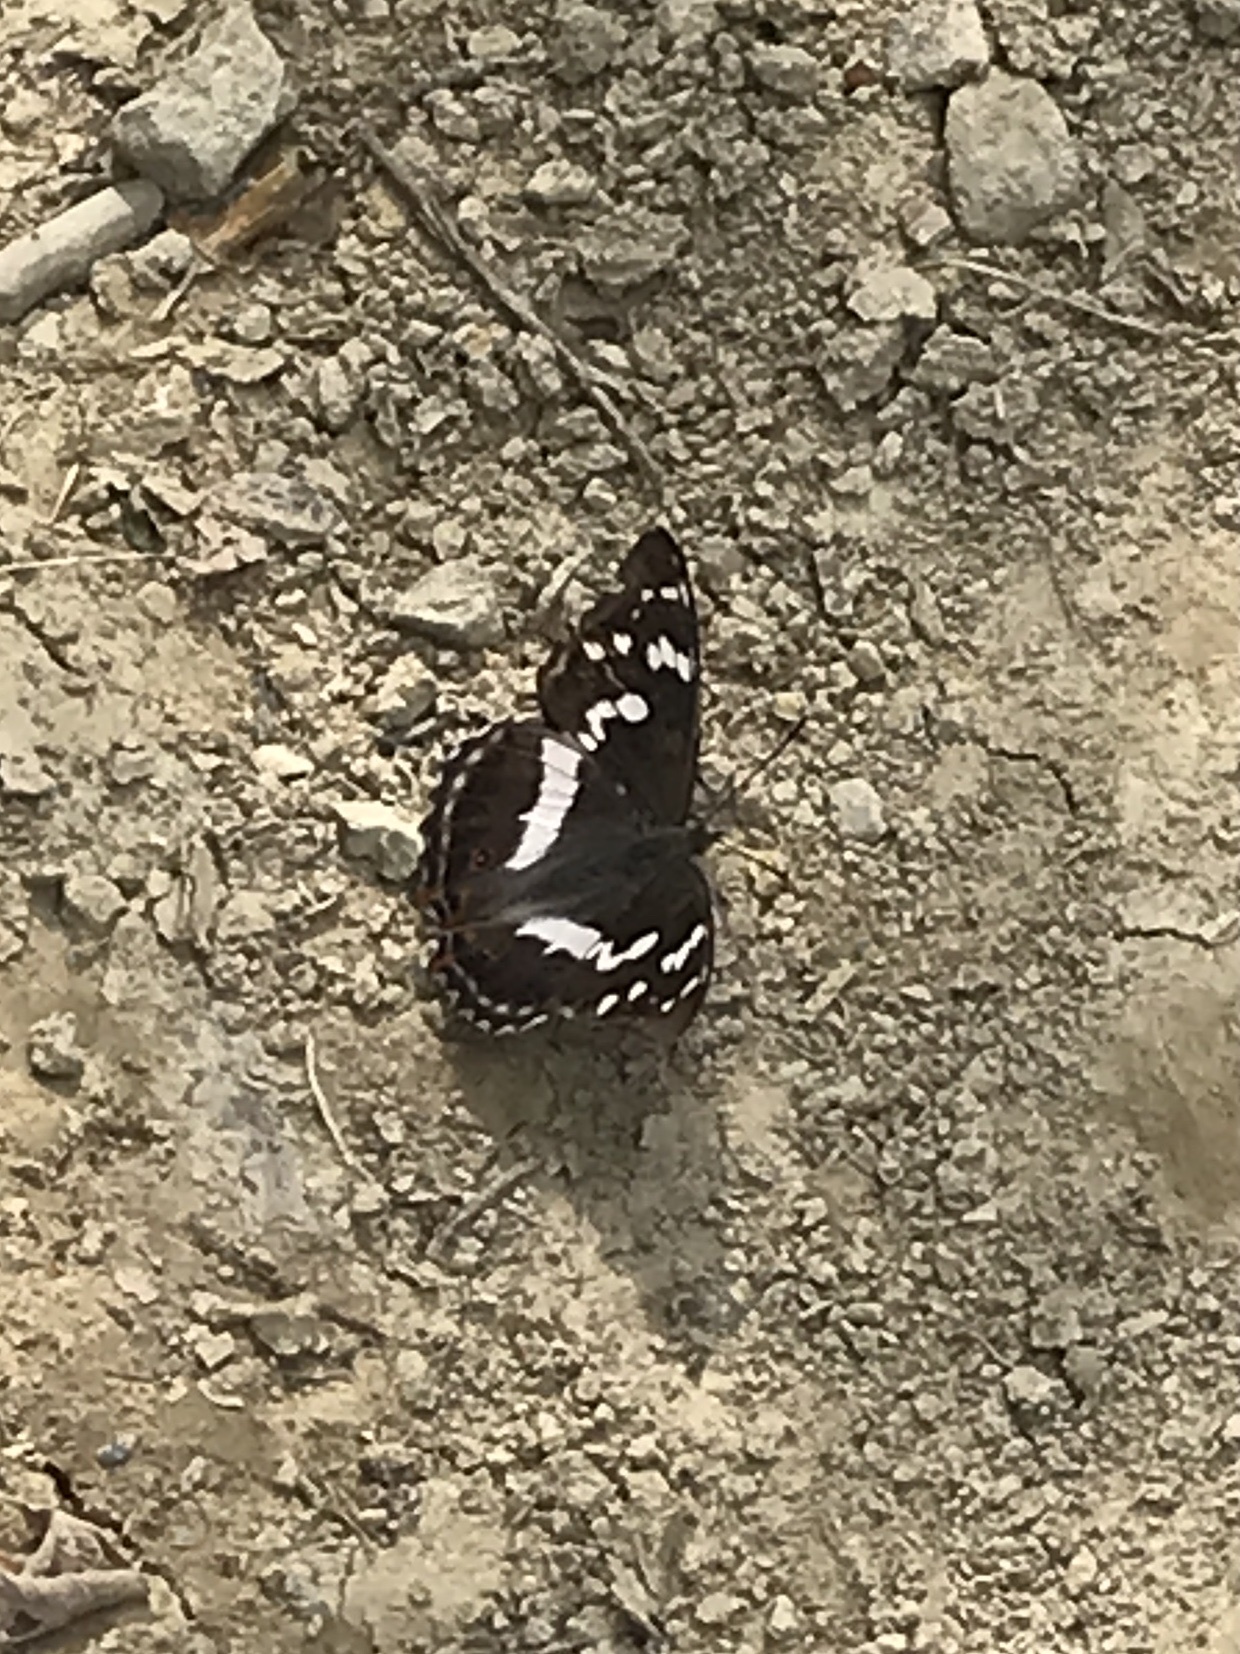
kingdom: Animalia
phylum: Arthropoda
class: Insecta
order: Lepidoptera
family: Nymphalidae
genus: Apatura
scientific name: Apatura iris
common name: Purple emperor
